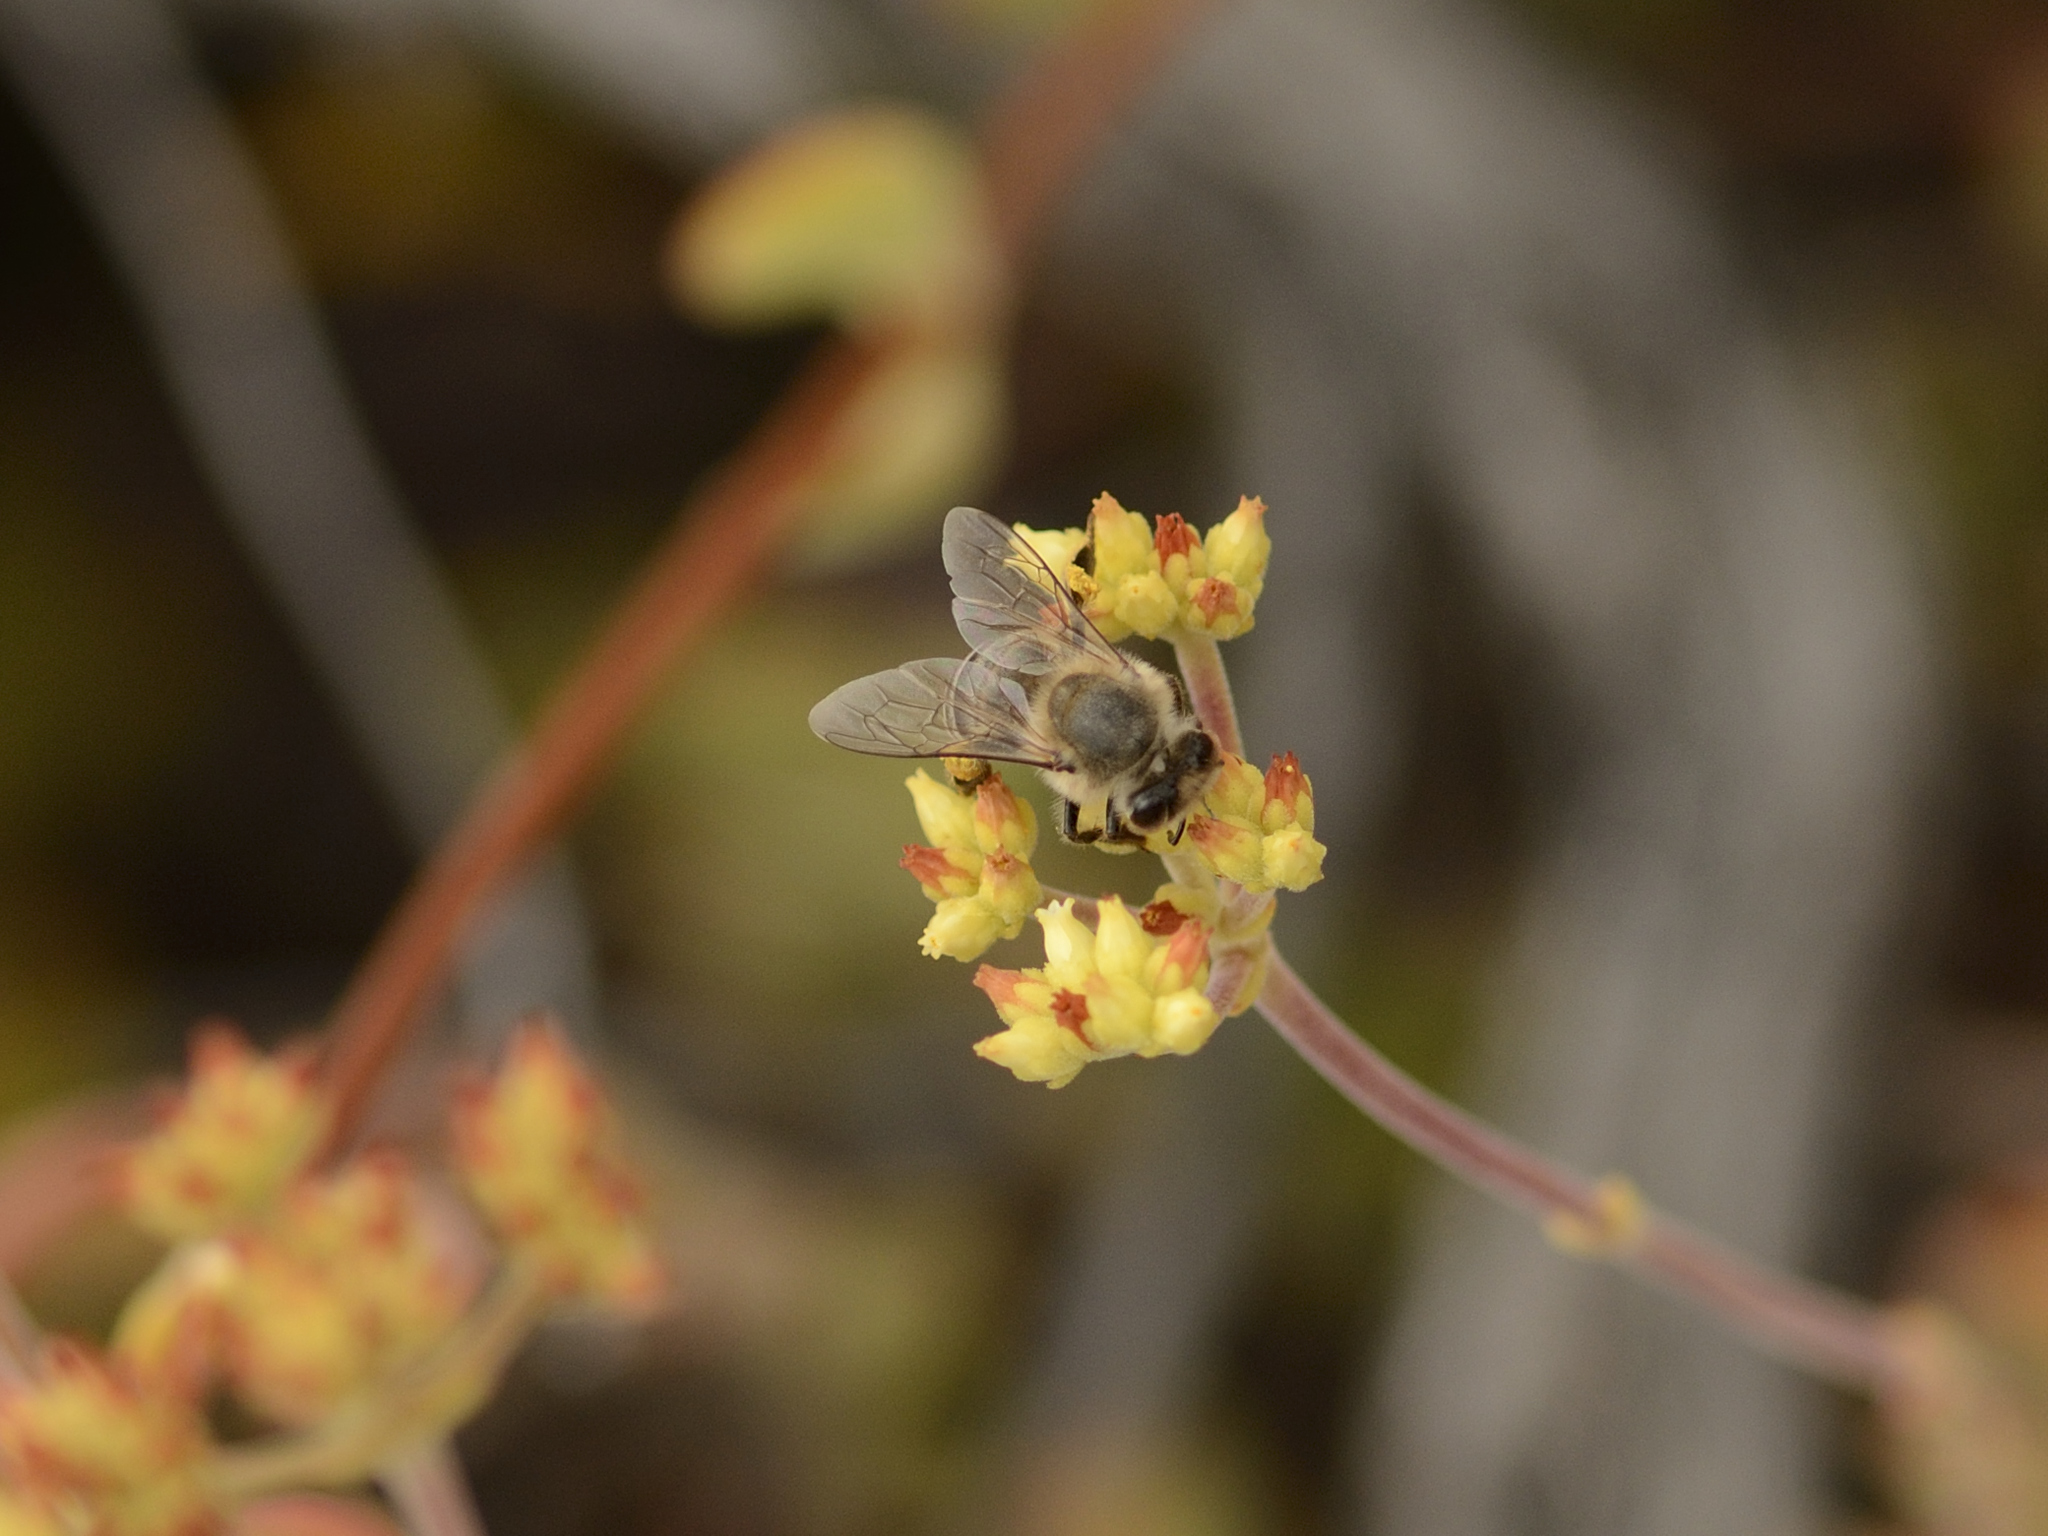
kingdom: Plantae
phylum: Tracheophyta
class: Magnoliopsida
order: Saxifragales
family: Crassulaceae
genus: Crassula
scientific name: Crassula atropurpurea
